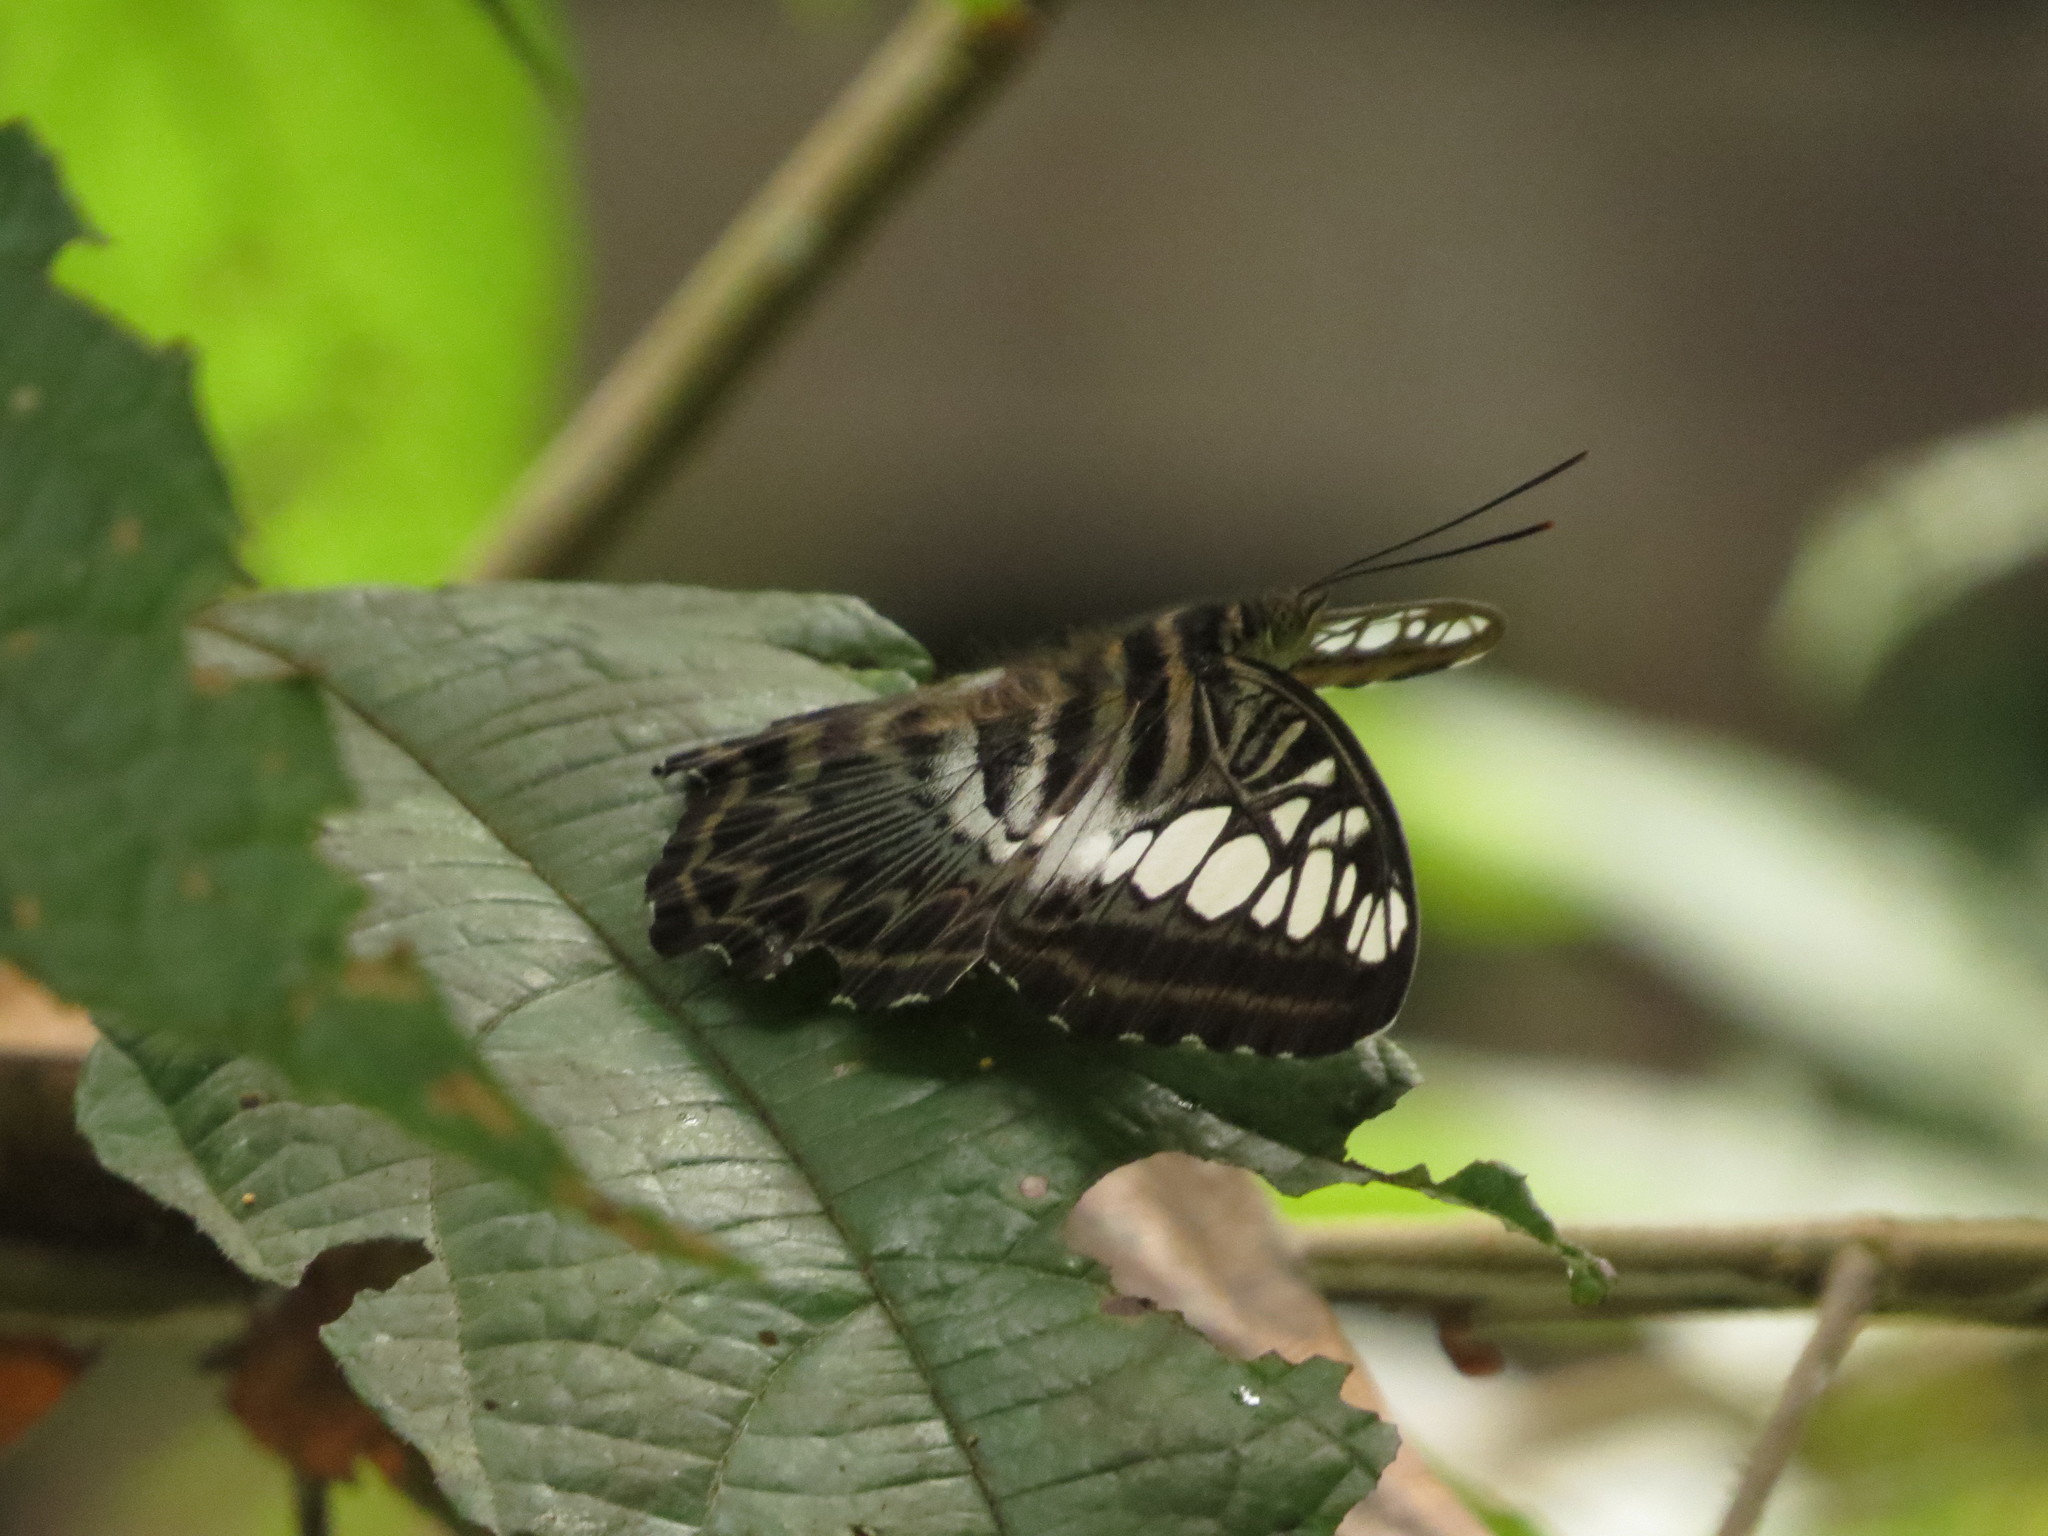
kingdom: Animalia
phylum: Arthropoda
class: Insecta
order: Lepidoptera
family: Nymphalidae
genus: Kallima
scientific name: Kallima sylvia
